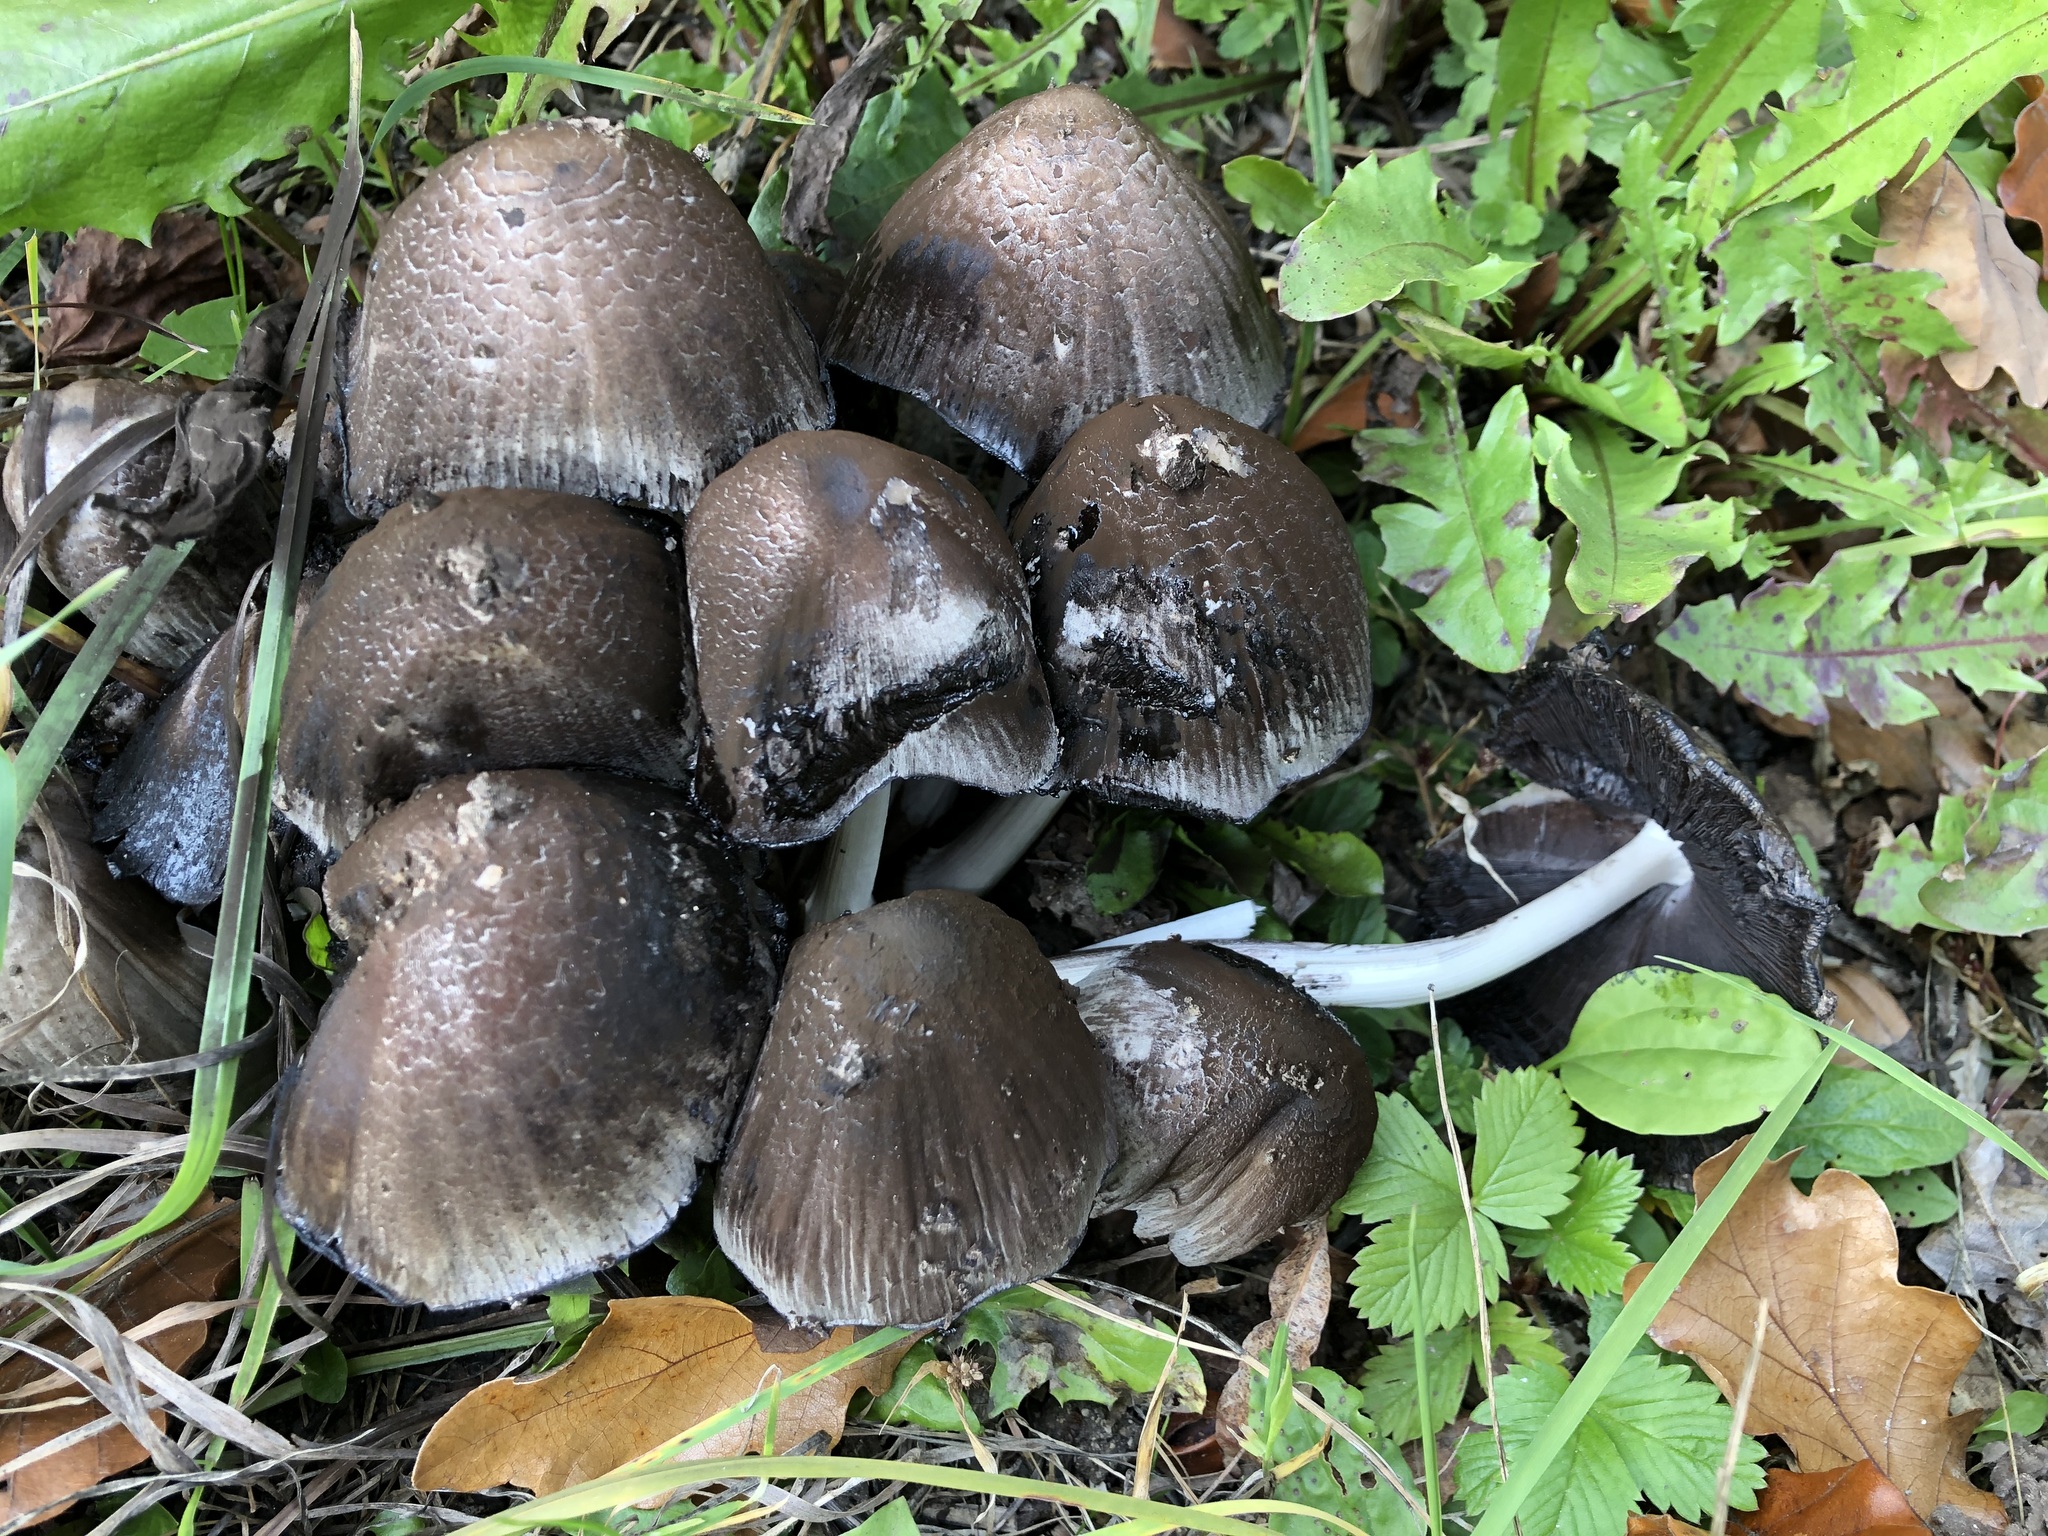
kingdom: Fungi
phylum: Basidiomycota
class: Agaricomycetes
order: Agaricales
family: Psathyrellaceae
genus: Coprinopsis
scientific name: Coprinopsis atramentaria
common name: Common ink-cap
